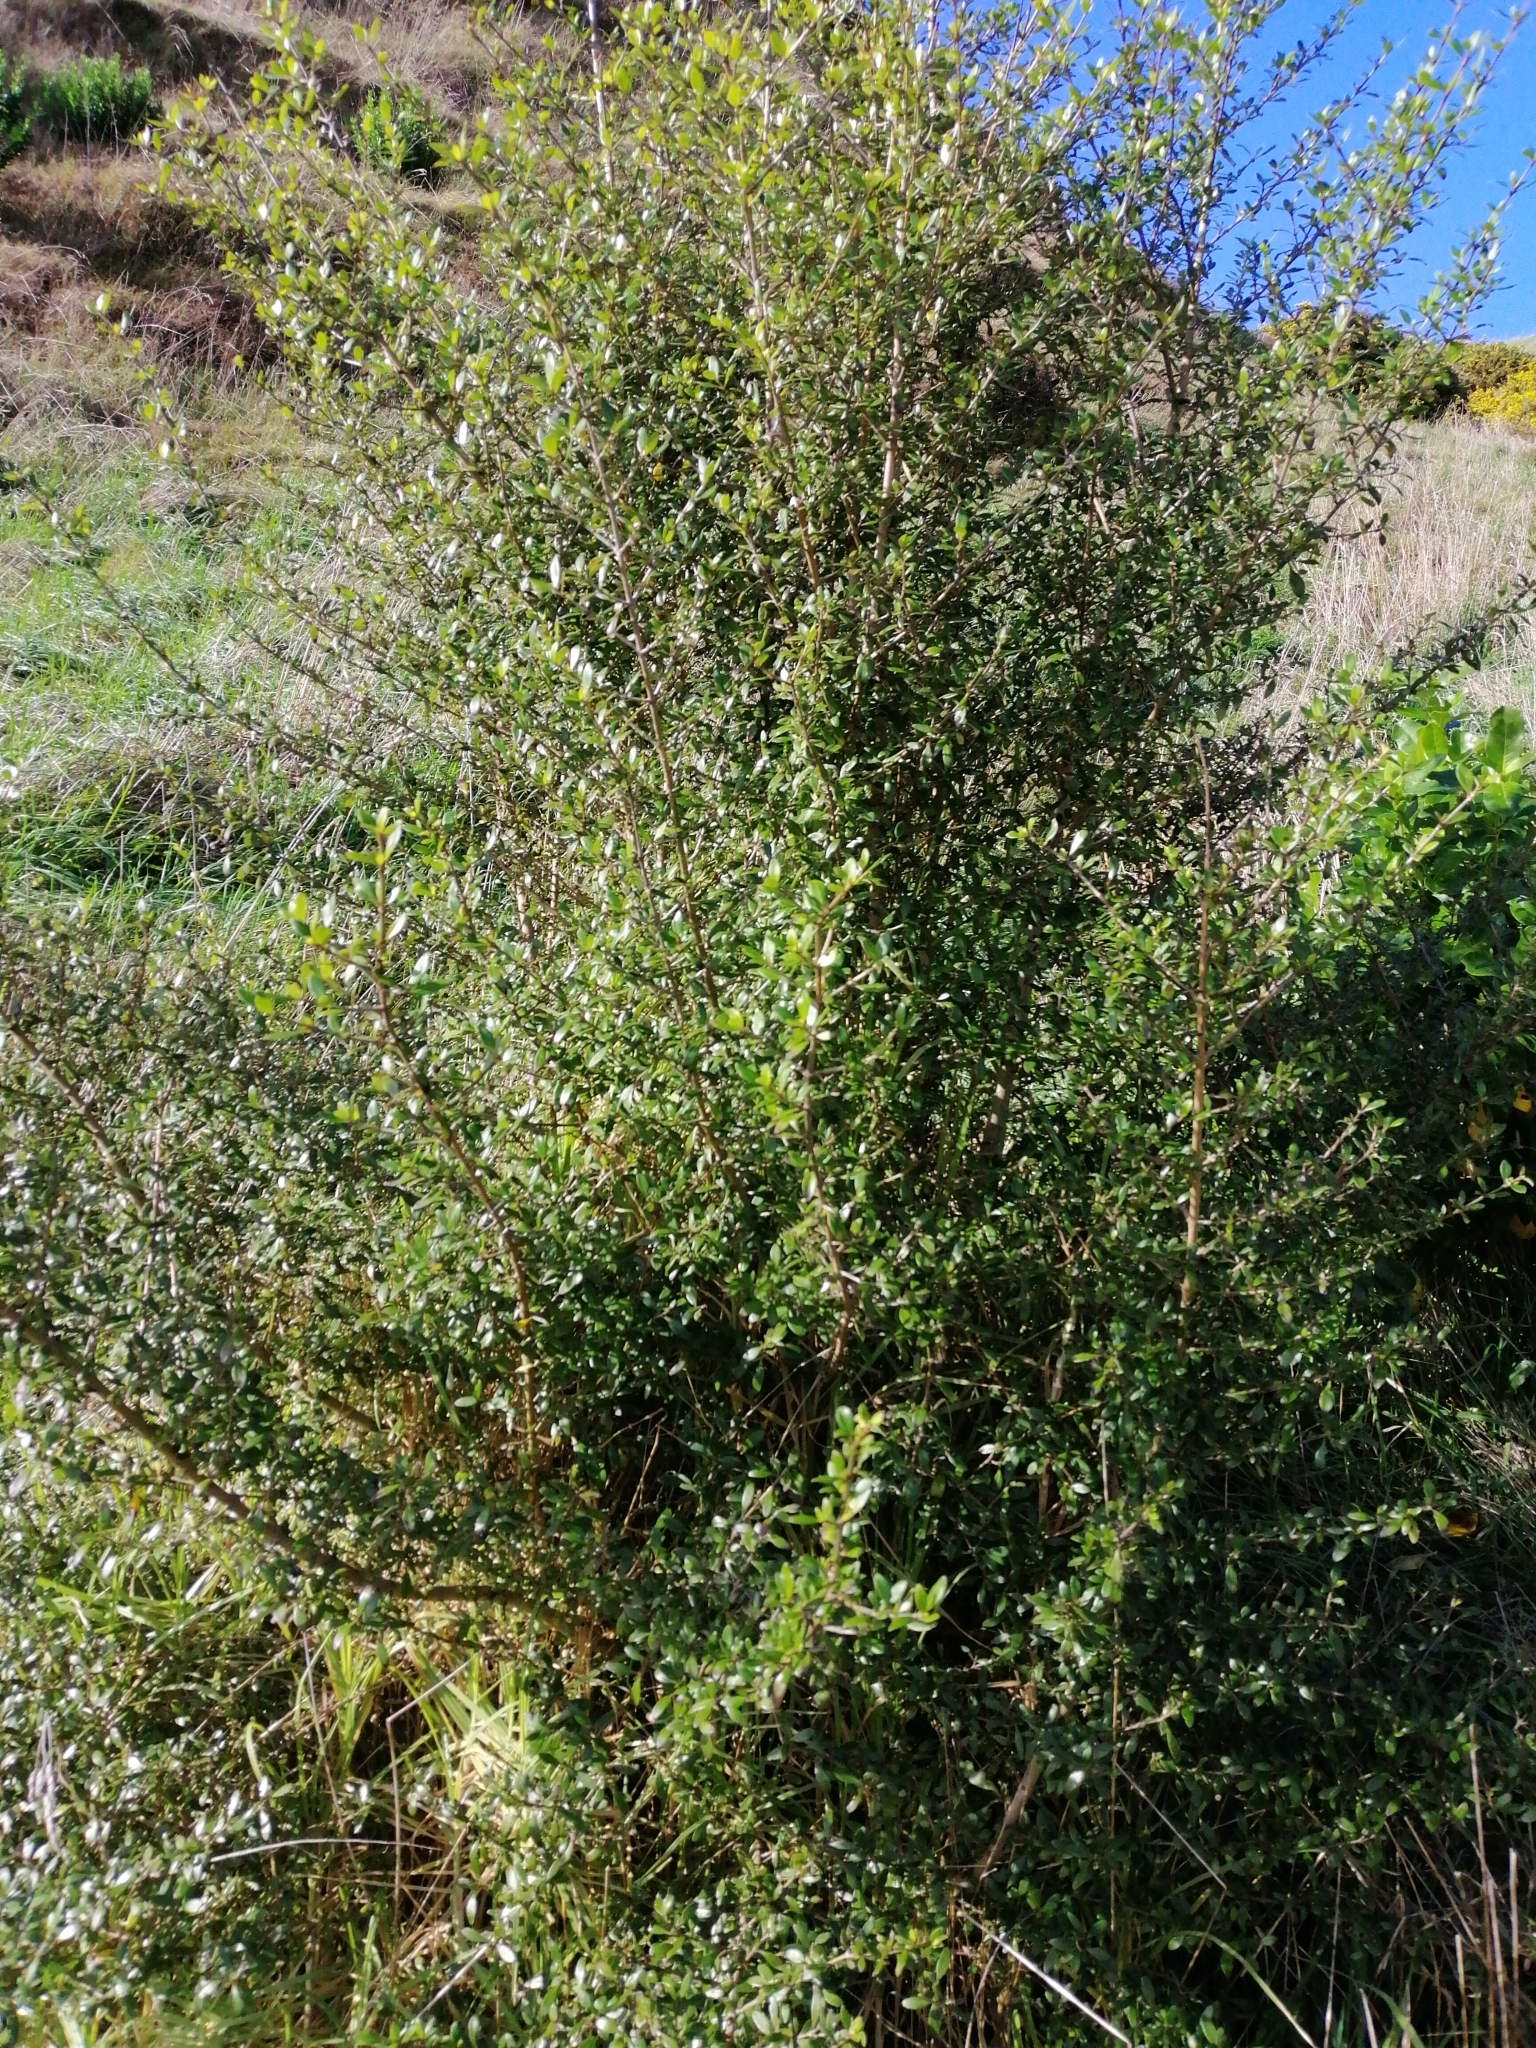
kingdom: Plantae
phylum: Tracheophyta
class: Magnoliopsida
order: Gentianales
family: Rubiaceae
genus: Coprosma
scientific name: Coprosma cunninghamii
